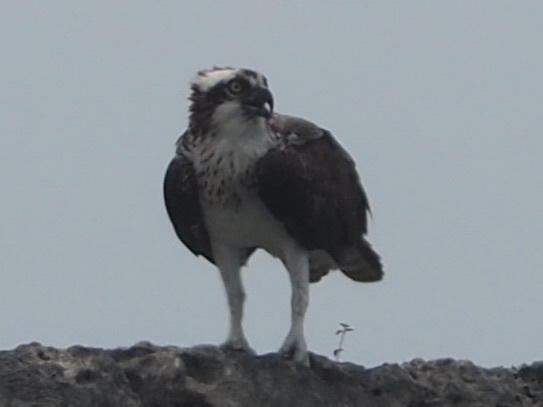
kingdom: Animalia
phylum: Chordata
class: Aves
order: Accipitriformes
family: Pandionidae
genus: Pandion
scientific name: Pandion haliaetus
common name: Osprey
